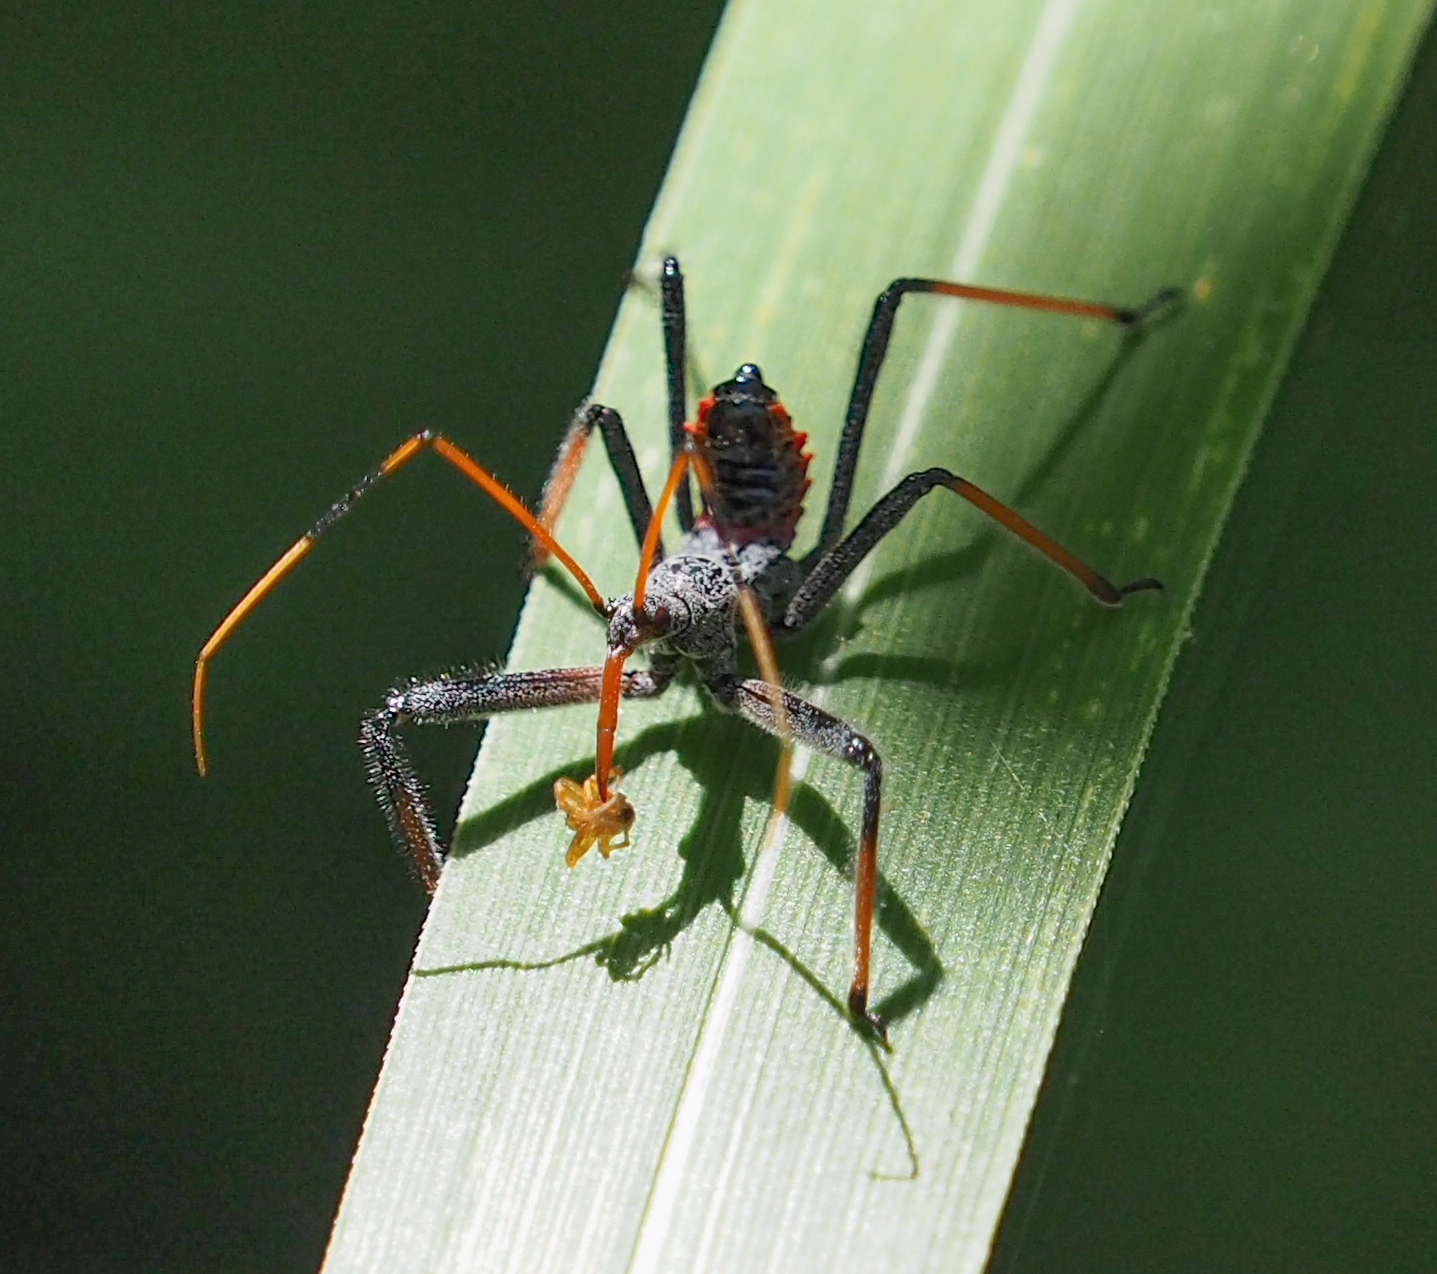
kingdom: Animalia
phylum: Arthropoda
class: Insecta
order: Hemiptera
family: Reduviidae
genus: Arilus
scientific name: Arilus cristatus
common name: North american wheel bug
